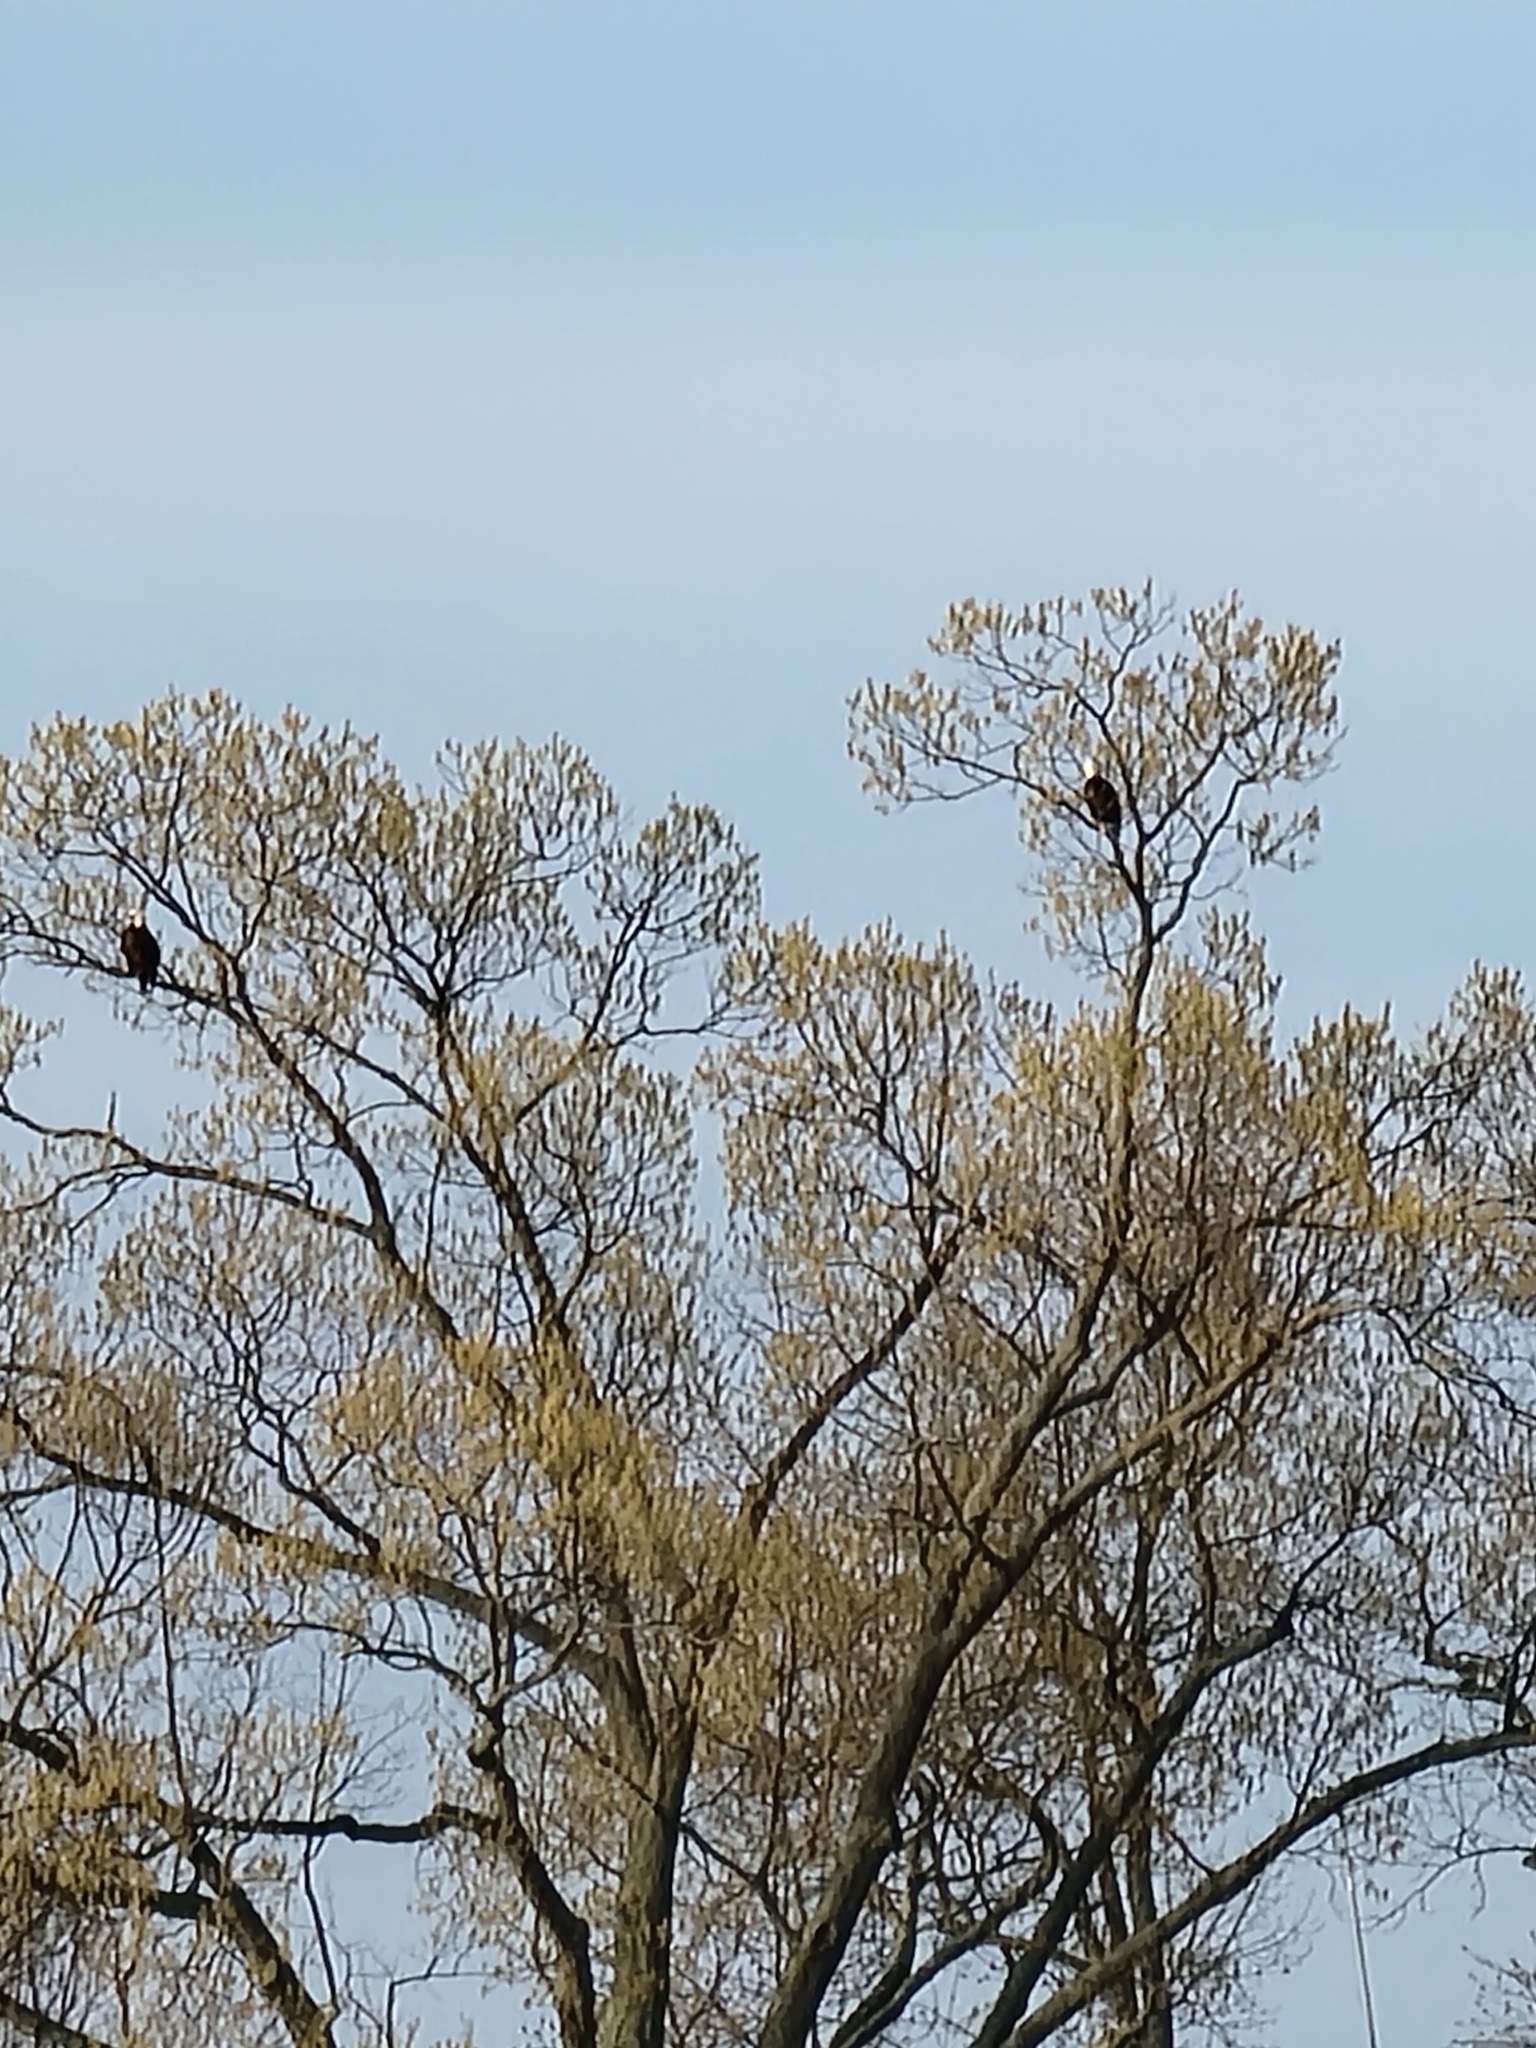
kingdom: Animalia
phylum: Chordata
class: Aves
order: Accipitriformes
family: Accipitridae
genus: Haliaeetus
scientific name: Haliaeetus leucocephalus
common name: Bald eagle
